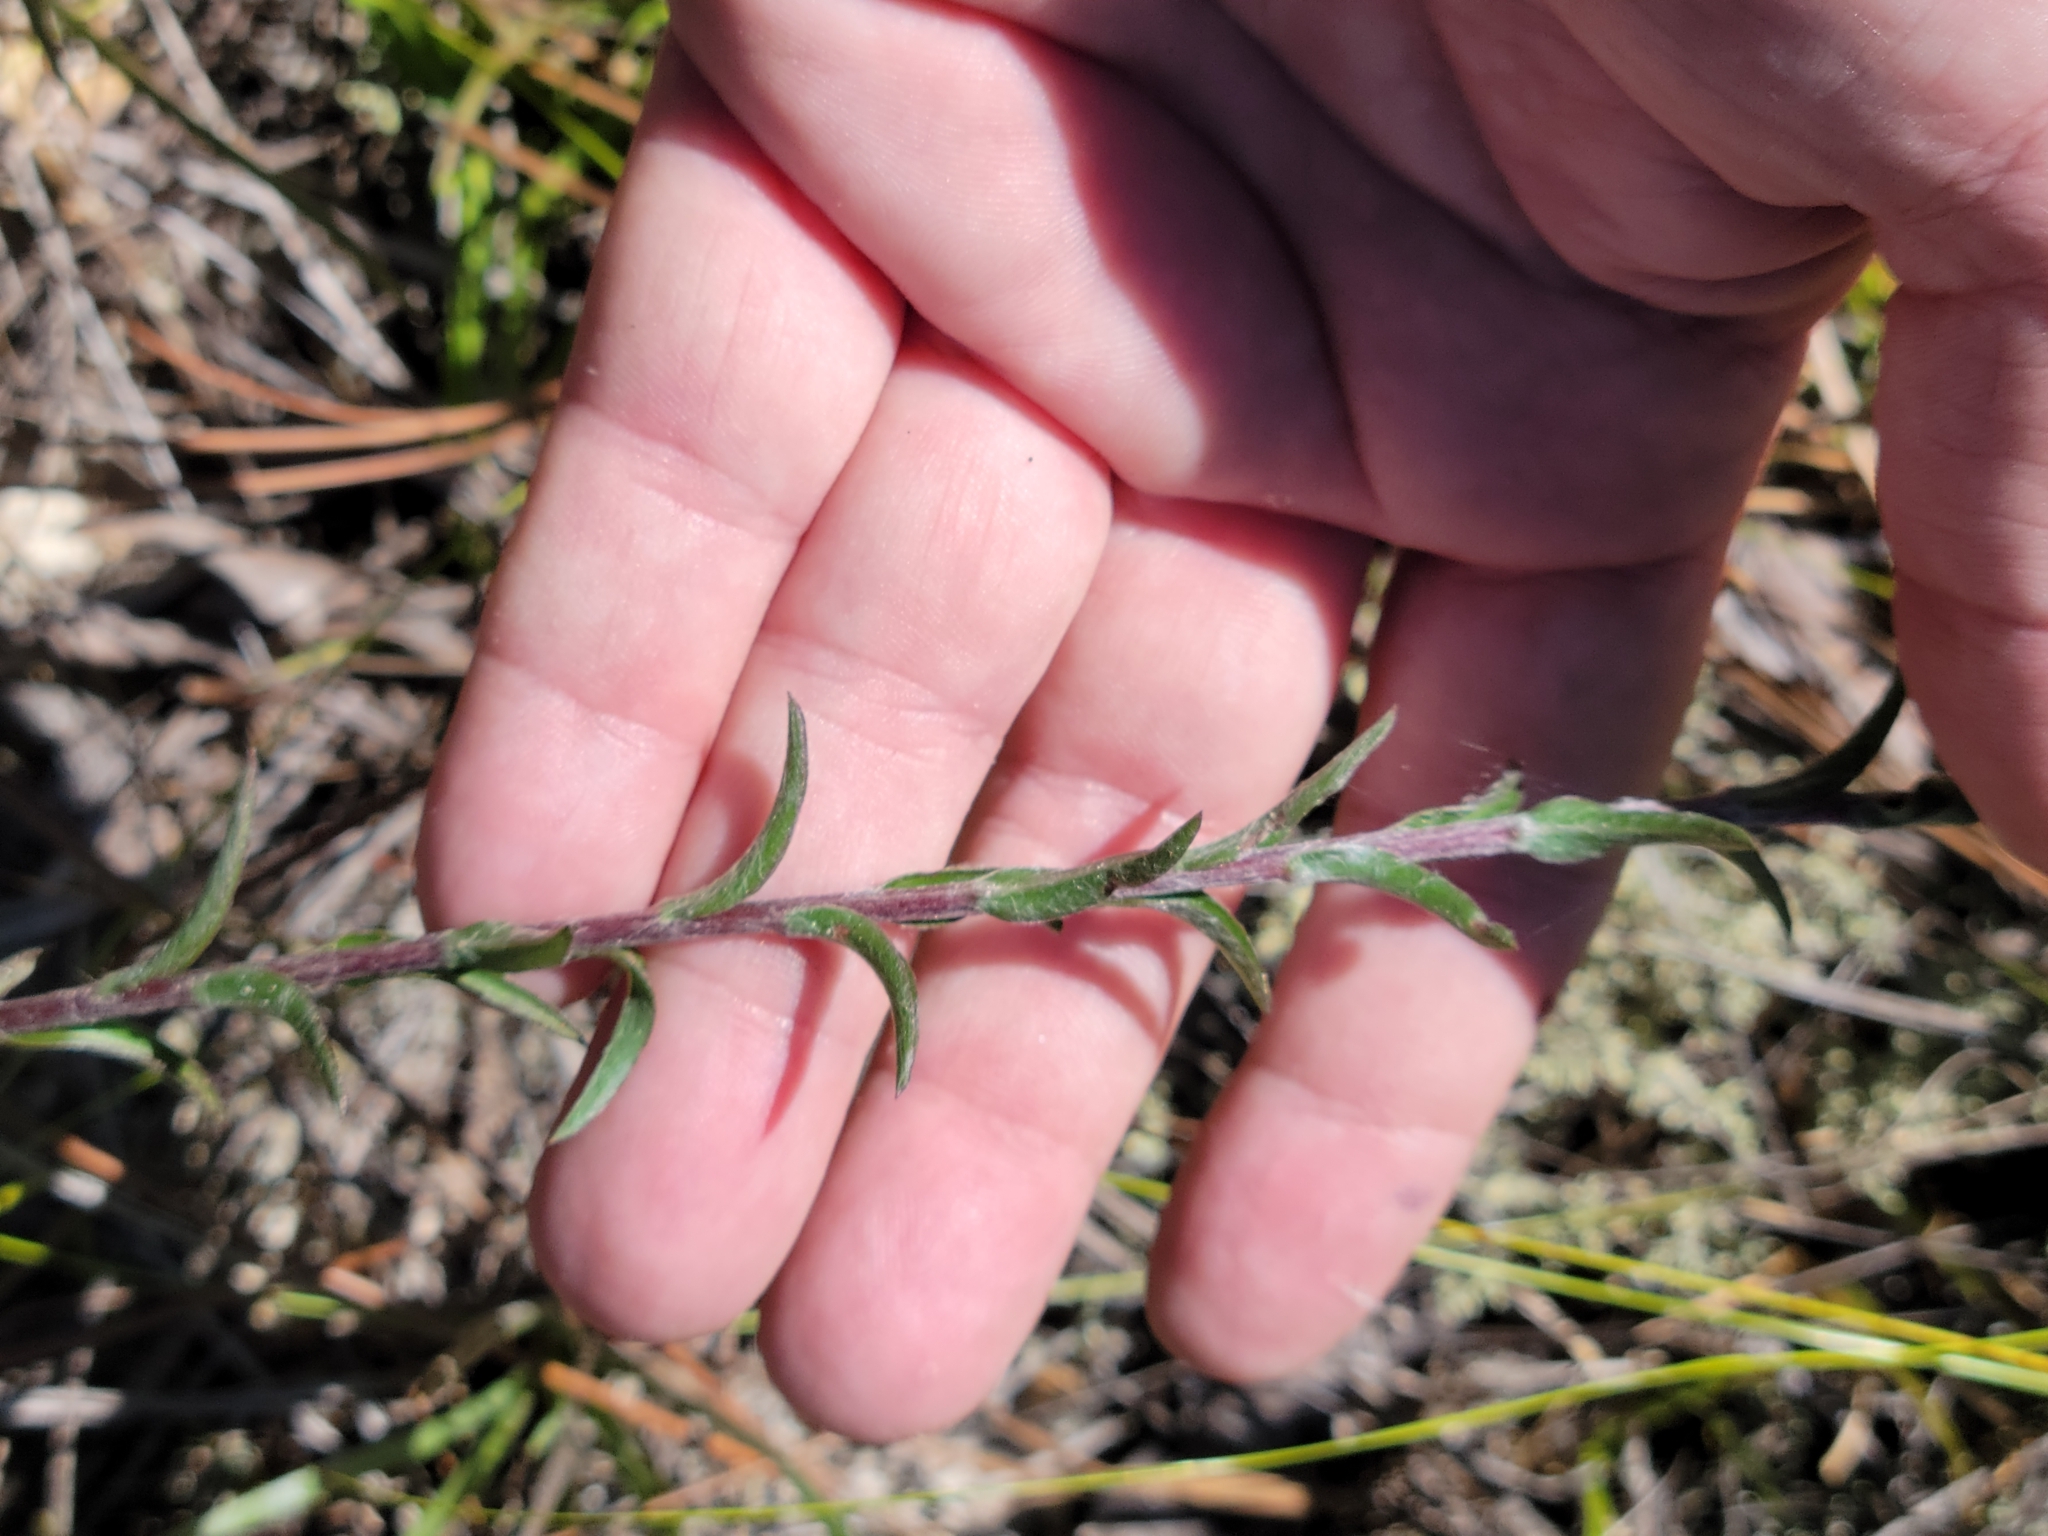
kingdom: Plantae
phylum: Tracheophyta
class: Magnoliopsida
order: Asterales
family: Asteraceae
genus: Chrysopsis
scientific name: Chrysopsis mariana
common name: Maryland golden-aster
